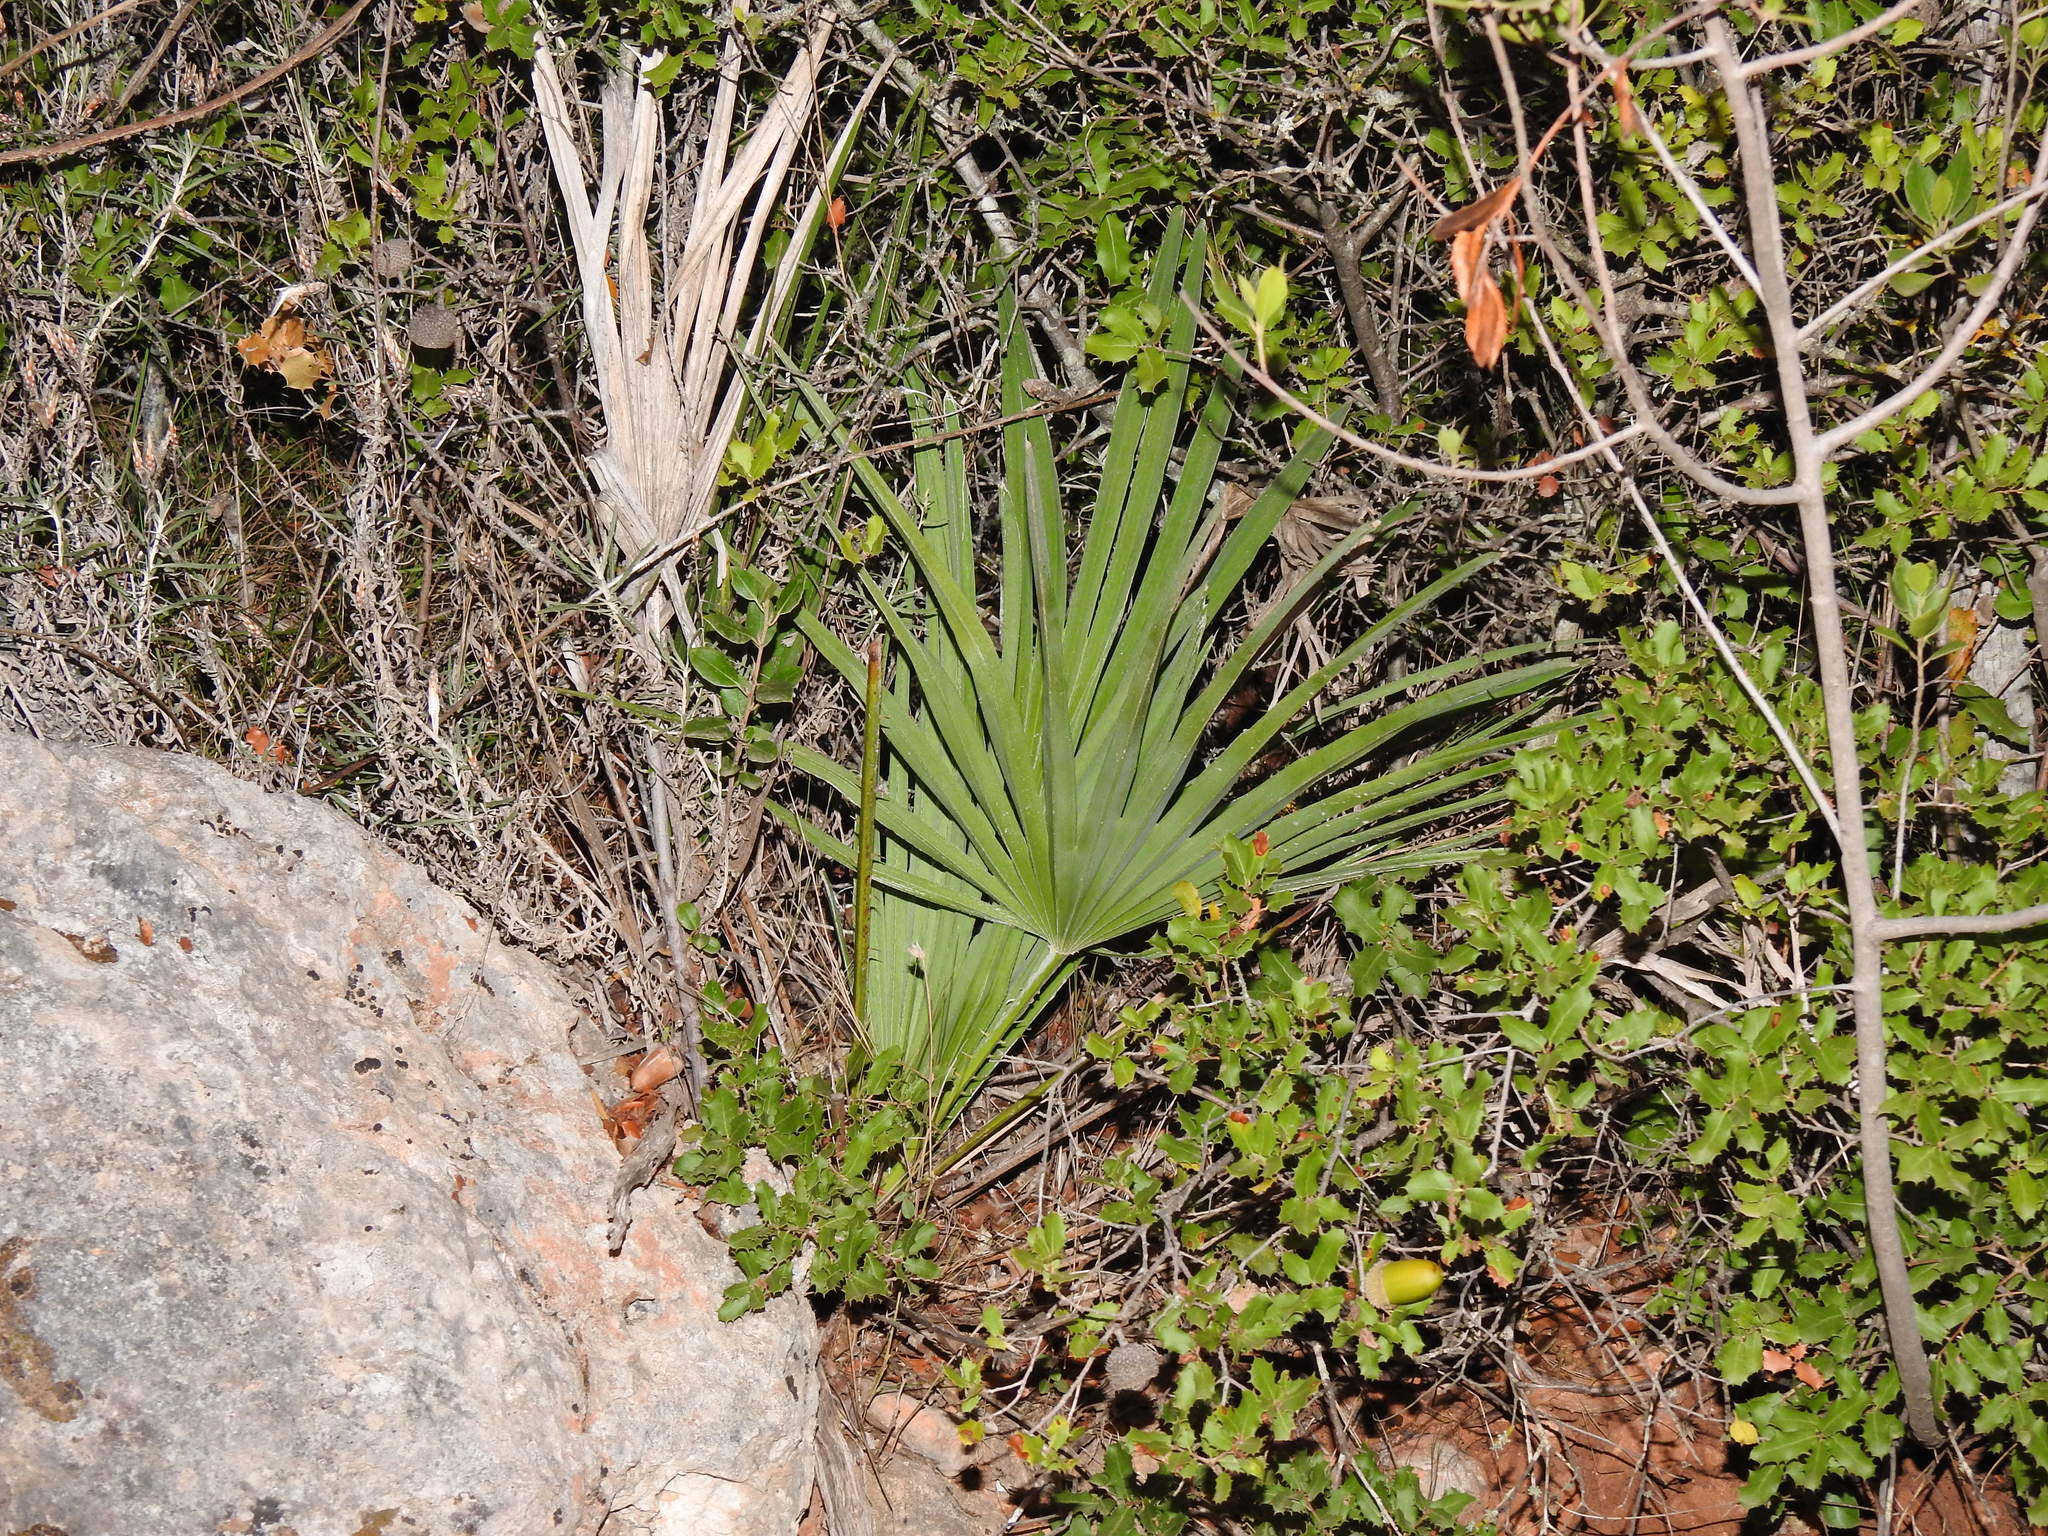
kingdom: Plantae
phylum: Tracheophyta
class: Liliopsida
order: Arecales
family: Arecaceae
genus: Chamaerops
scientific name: Chamaerops humilis
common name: Dwarf fan palm
